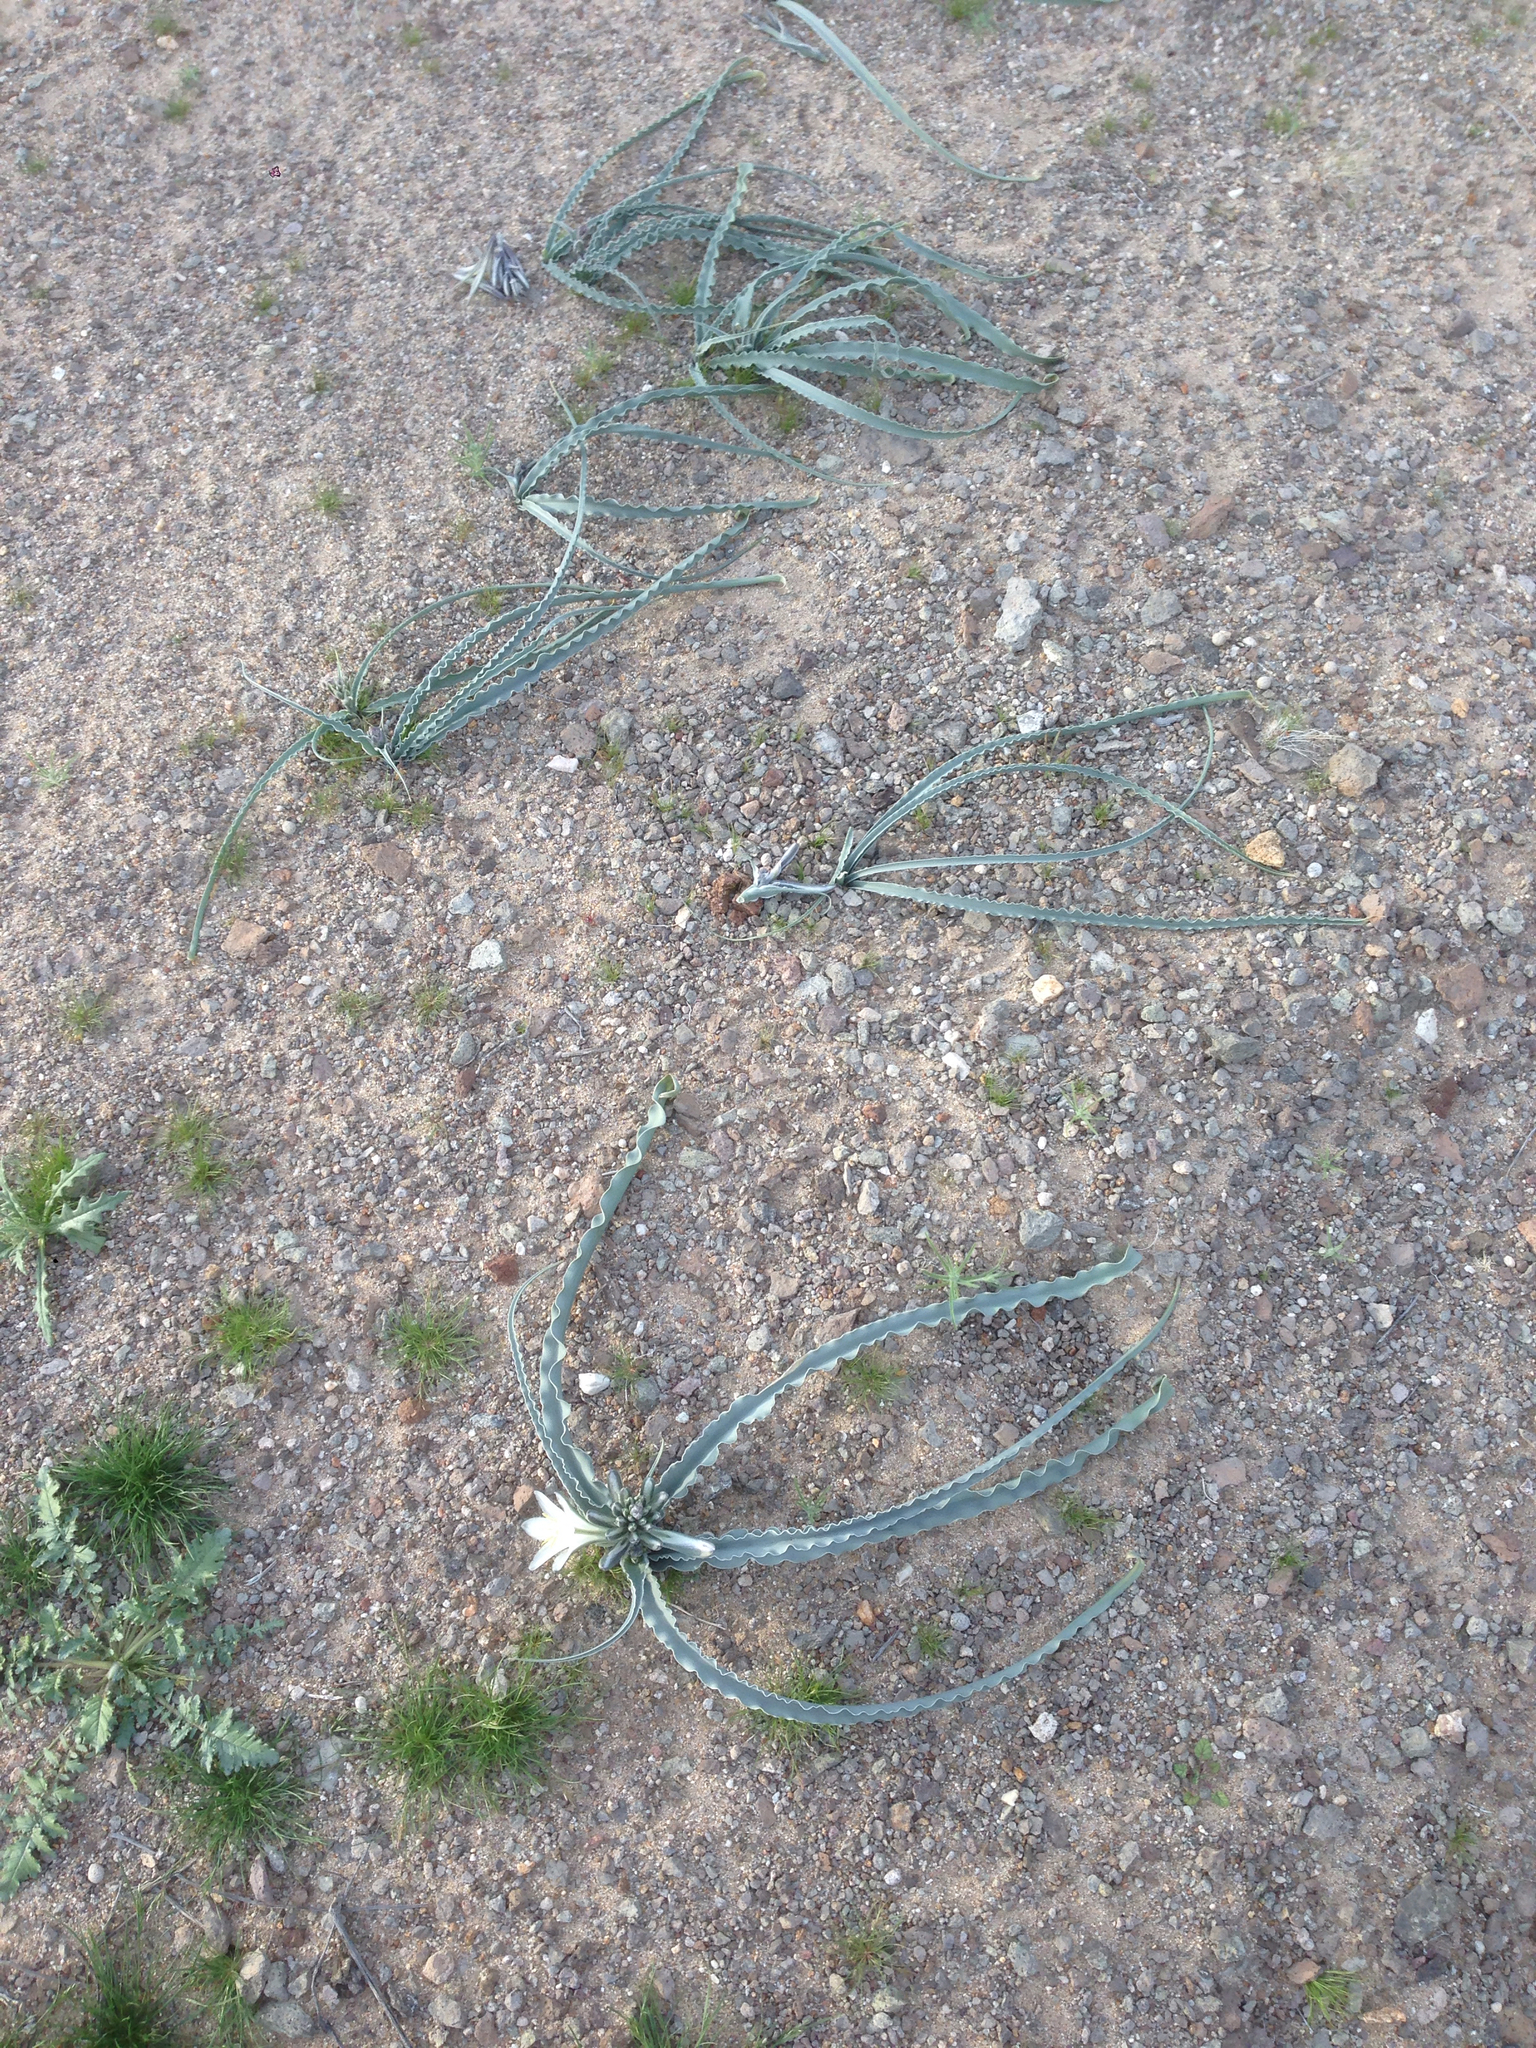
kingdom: Plantae
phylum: Tracheophyta
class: Liliopsida
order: Asparagales
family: Asparagaceae
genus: Hesperocallis
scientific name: Hesperocallis undulata
